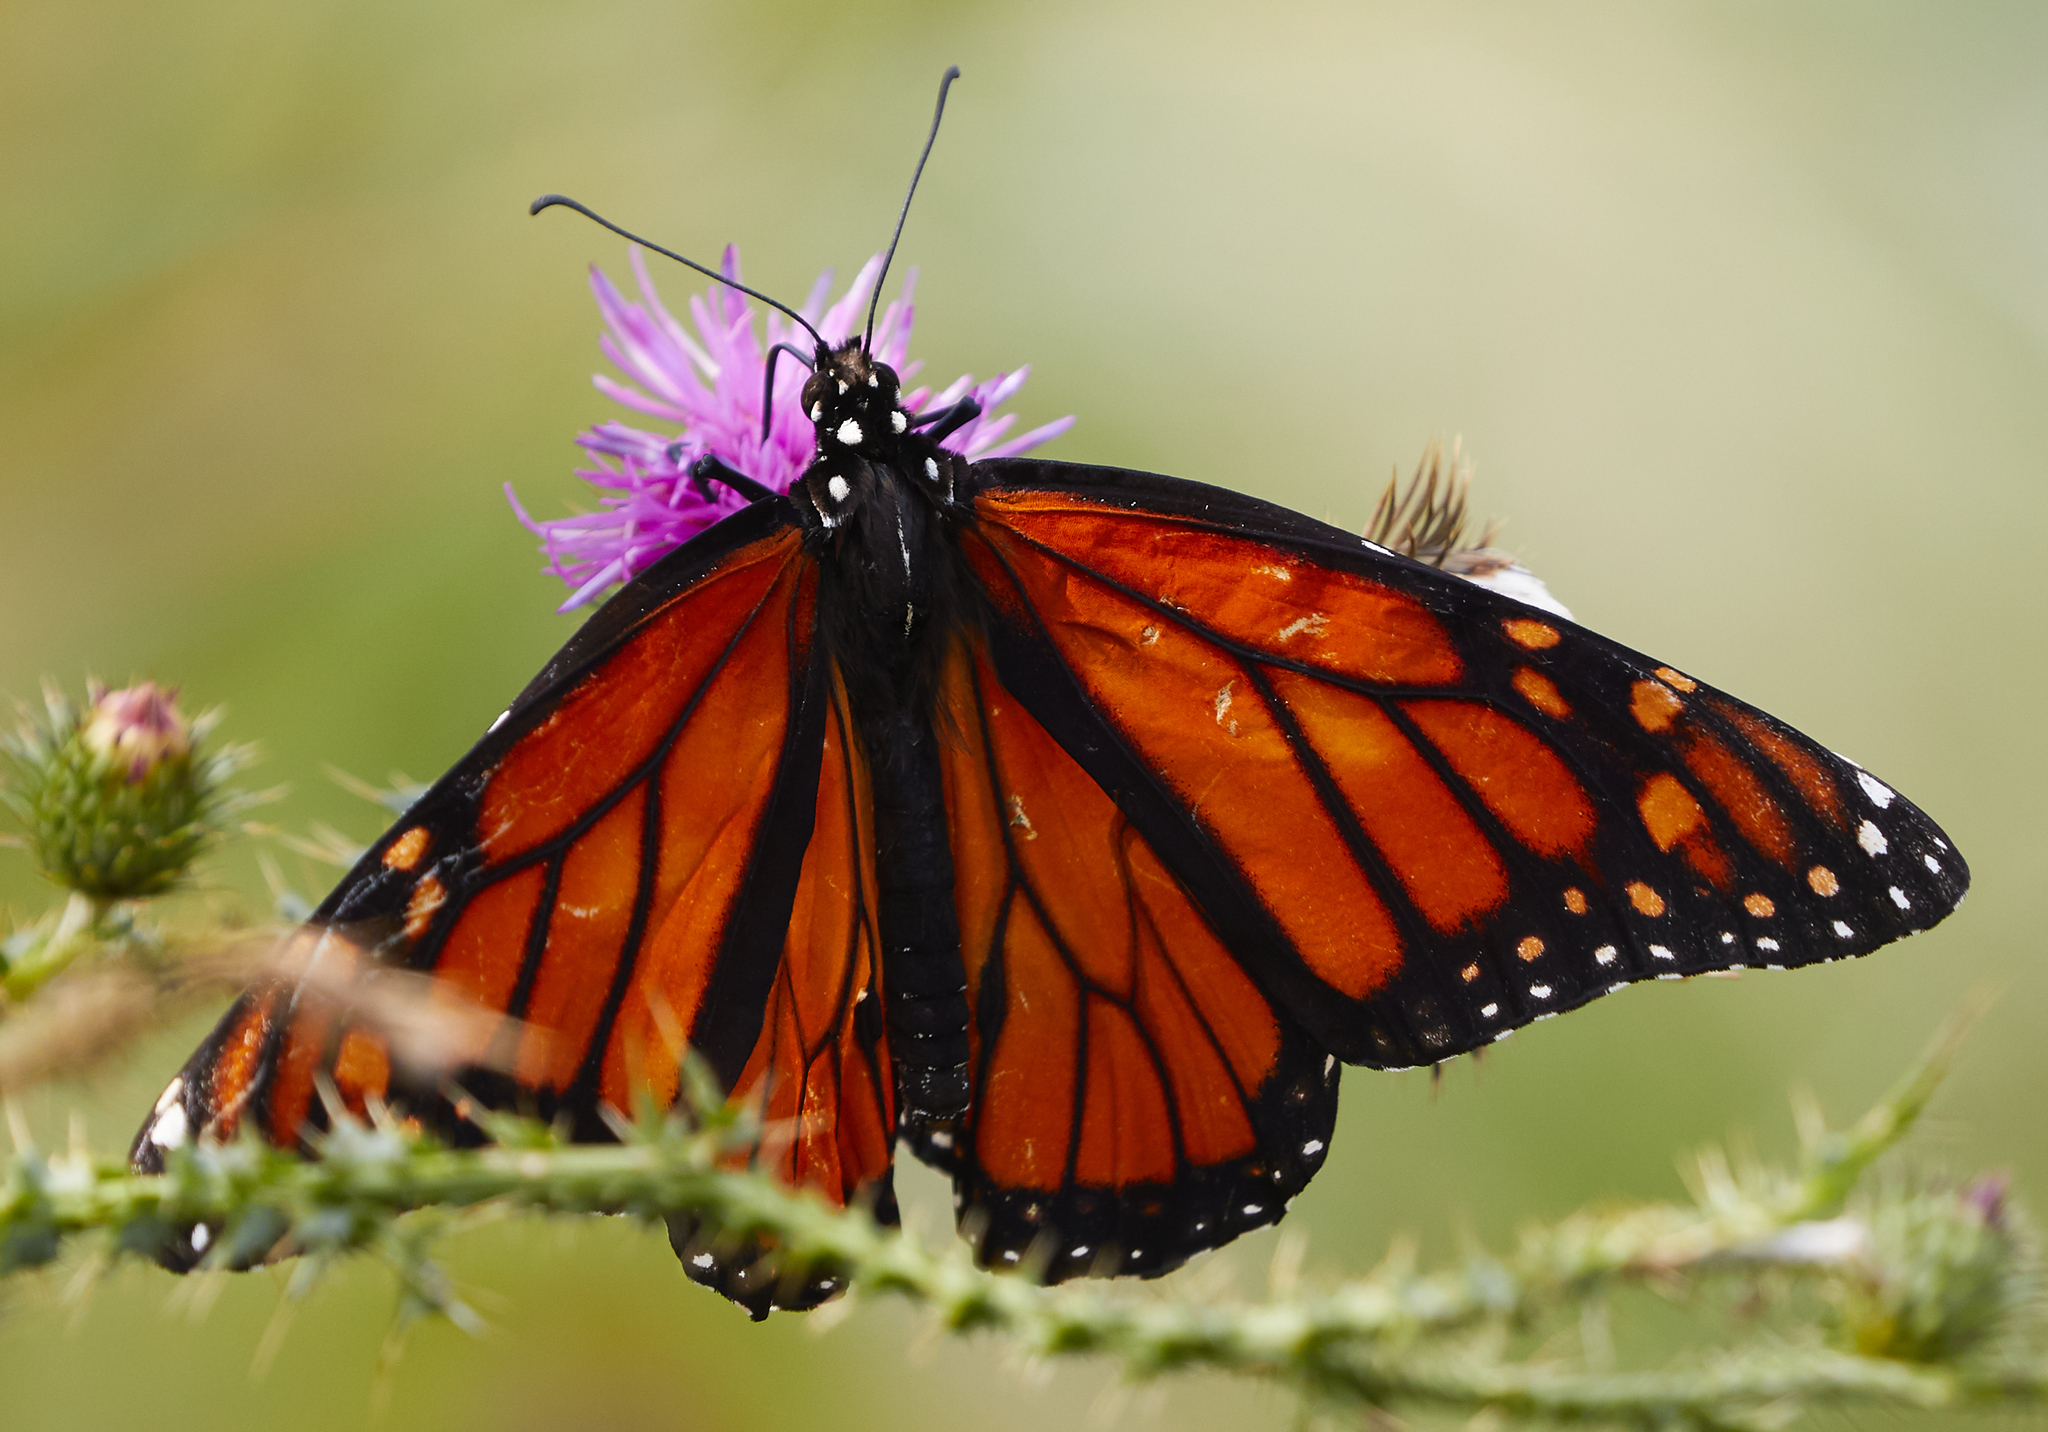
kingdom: Animalia
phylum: Arthropoda
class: Insecta
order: Lepidoptera
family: Nymphalidae
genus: Danaus
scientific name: Danaus plexippus
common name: Monarch
